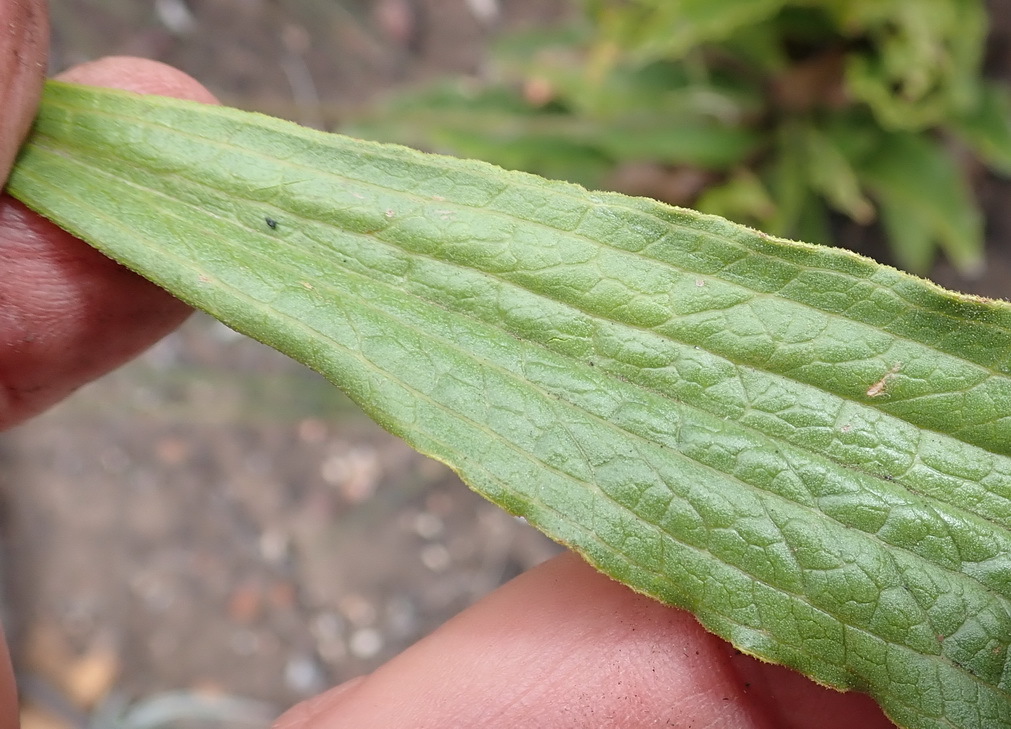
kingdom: Plantae
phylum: Tracheophyta
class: Magnoliopsida
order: Asterales
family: Asteraceae
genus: Helichrysum
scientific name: Helichrysum nudifolium
